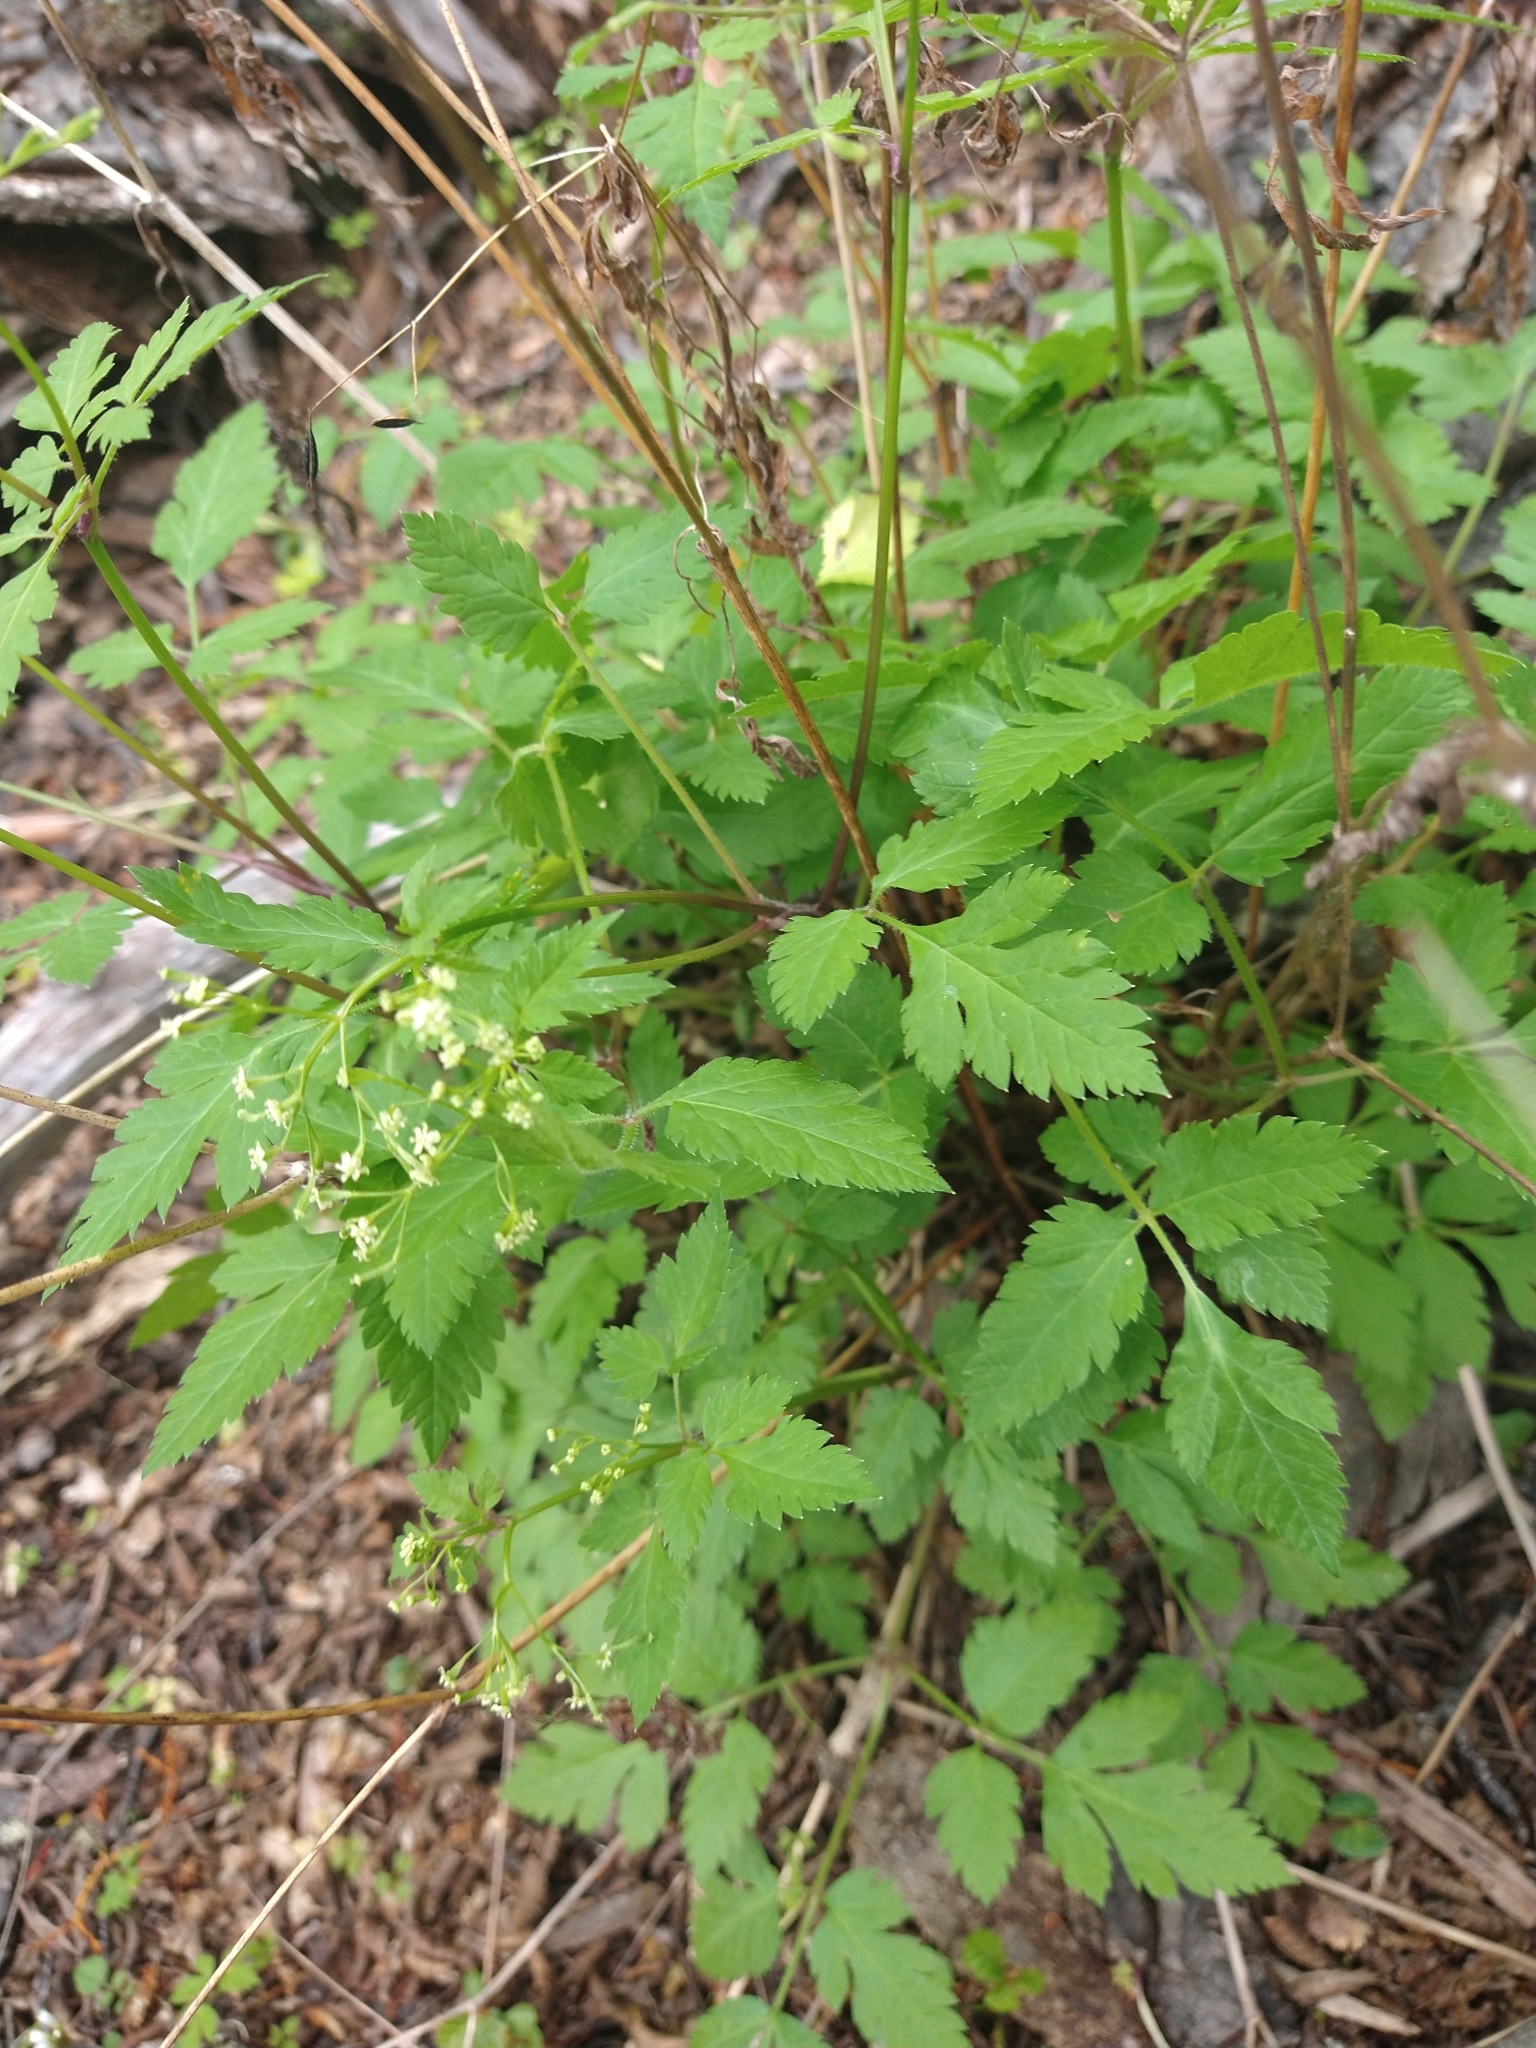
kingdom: Plantae
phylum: Tracheophyta
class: Magnoliopsida
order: Apiales
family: Apiaceae
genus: Osmorhiza
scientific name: Osmorhiza berteroi
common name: Mountain sweet cicely
